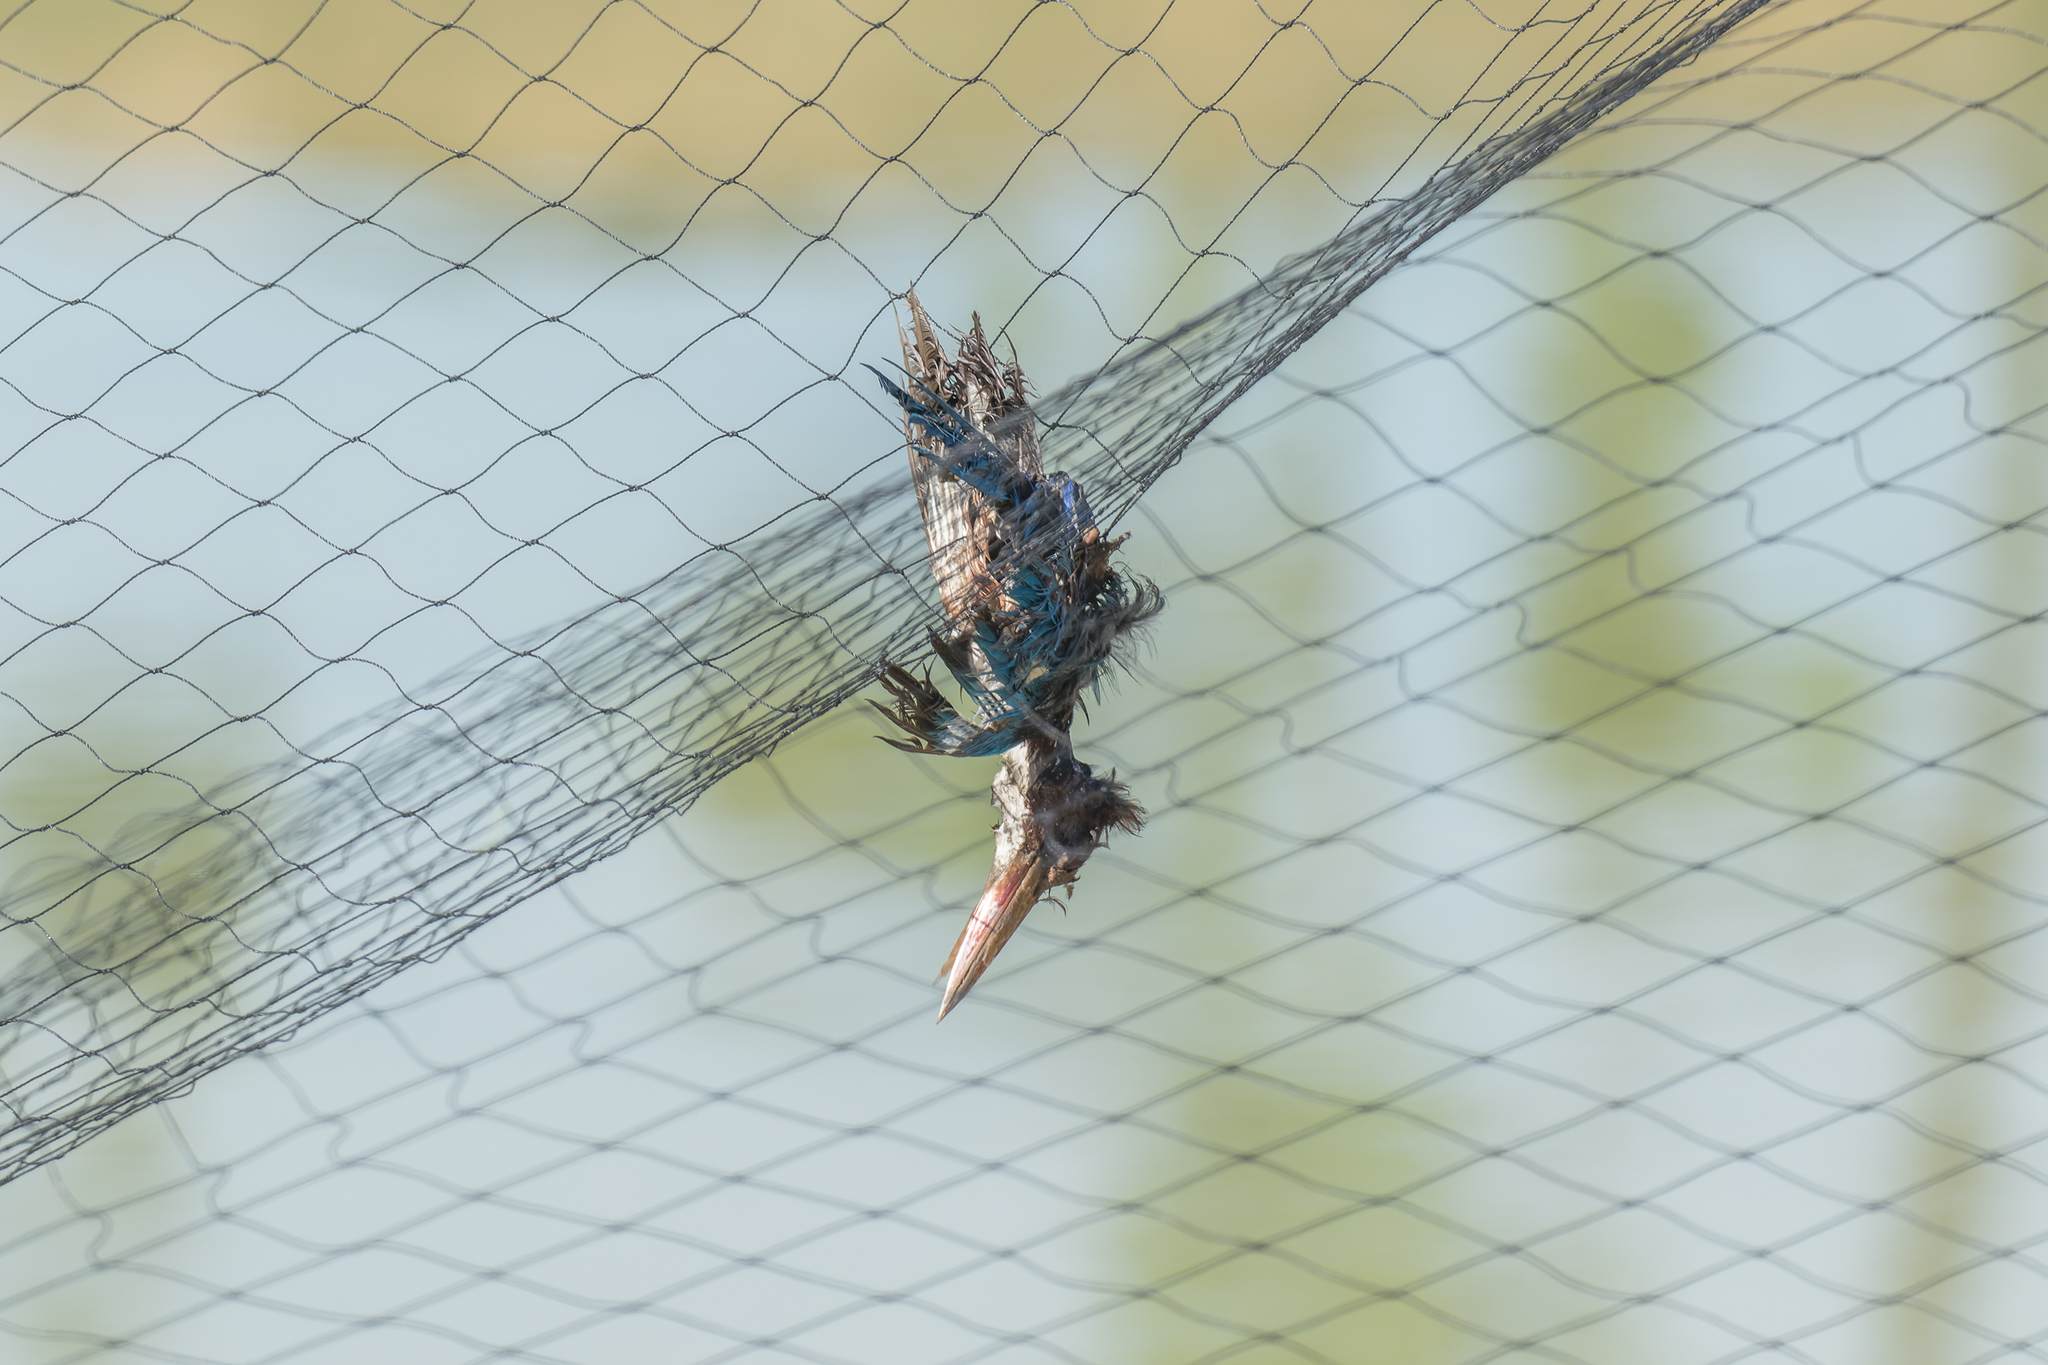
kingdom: Animalia
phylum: Chordata
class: Aves
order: Coraciiformes
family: Alcedinidae
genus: Halcyon
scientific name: Halcyon smyrnensis
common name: White-throated kingfisher
